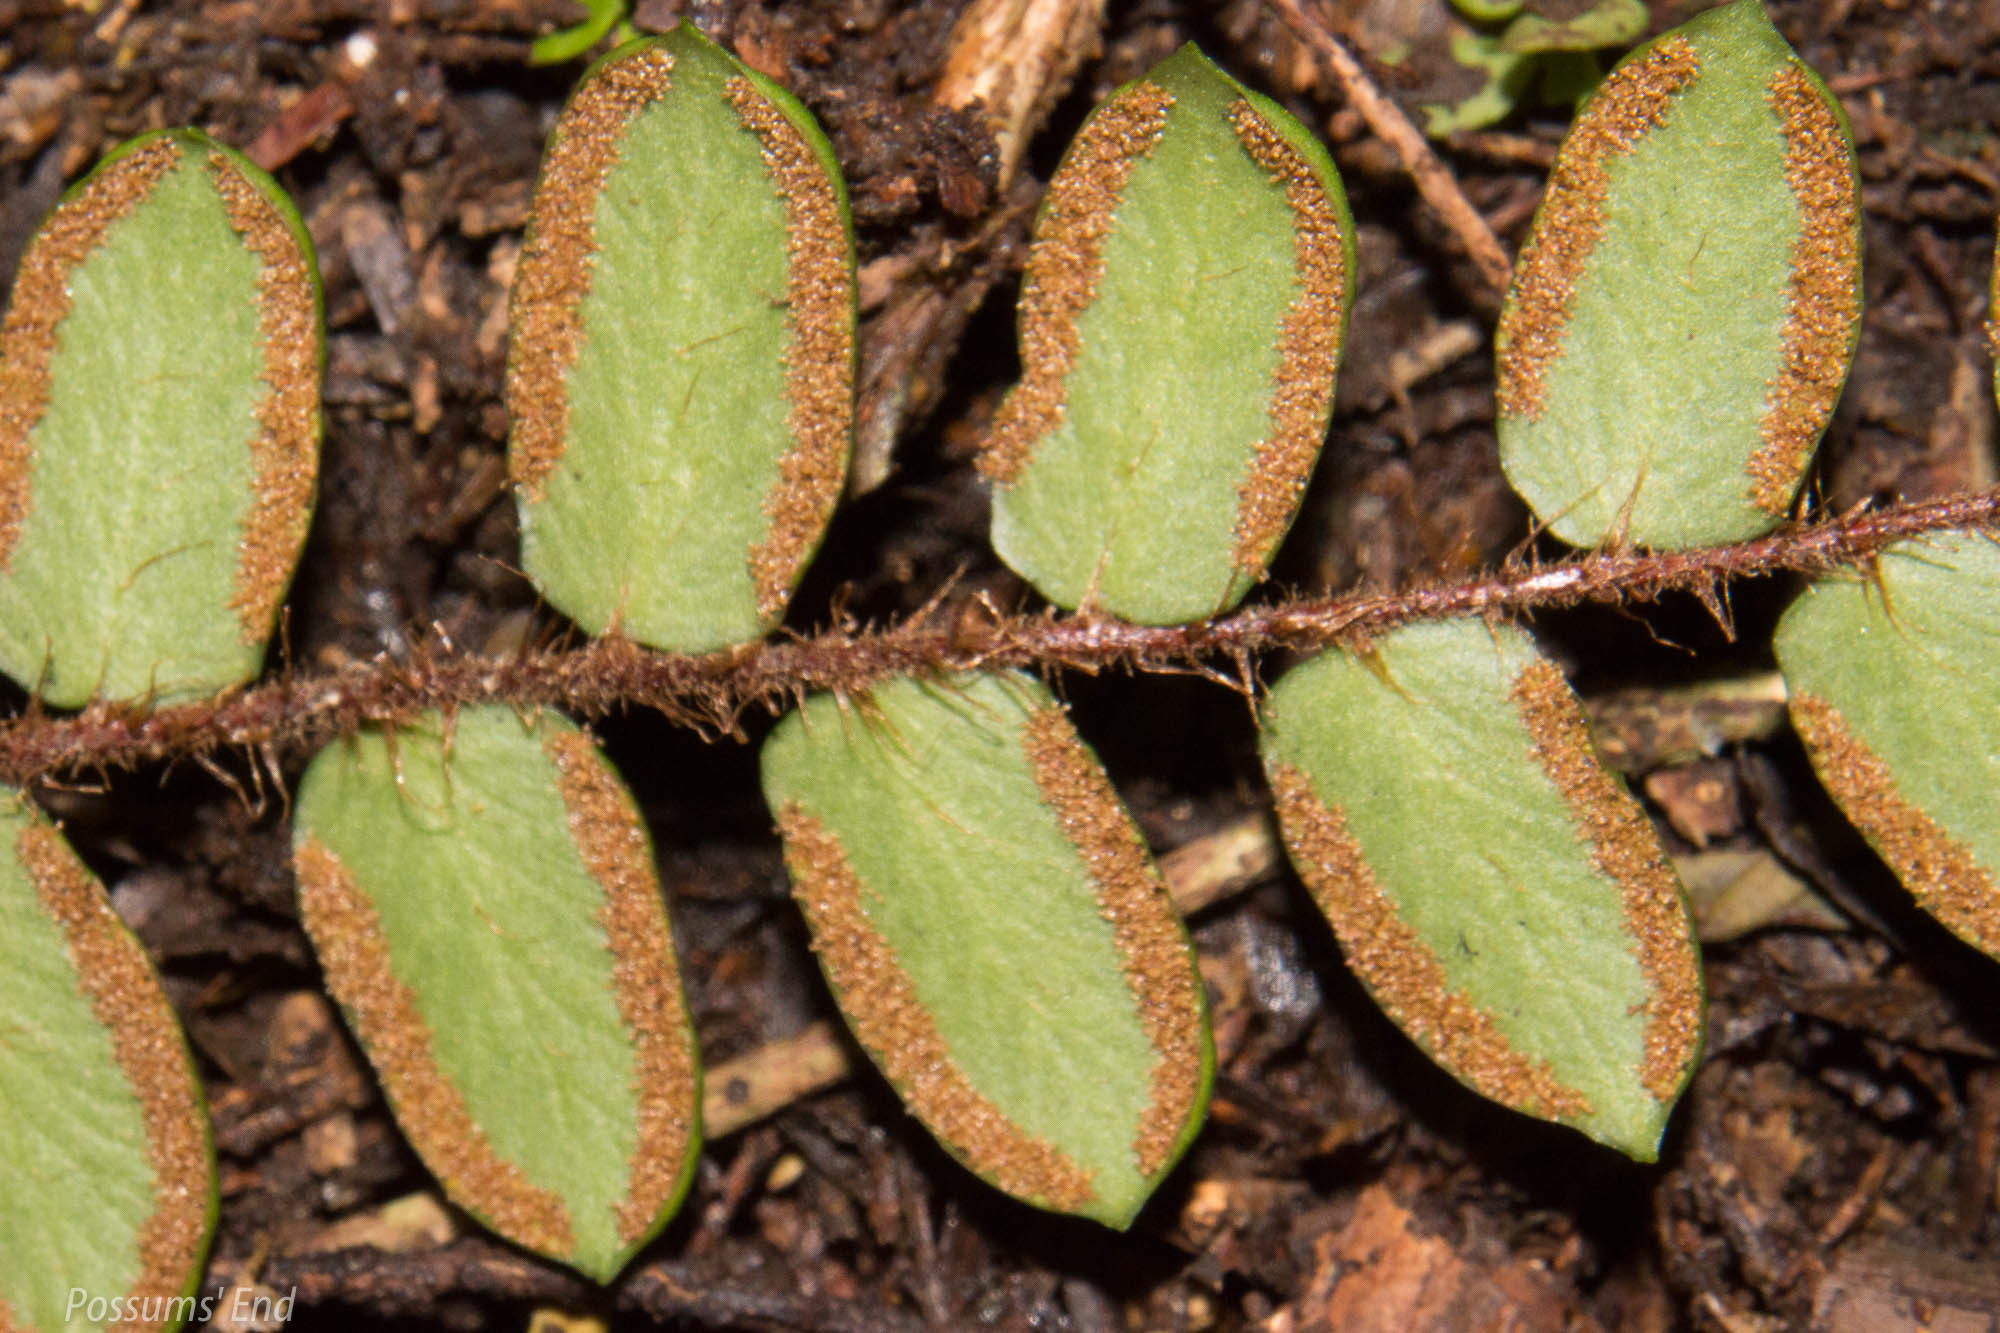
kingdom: Plantae
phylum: Tracheophyta
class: Polypodiopsida
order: Polypodiales
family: Pteridaceae
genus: Pellaea
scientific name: Pellaea rotundifolia
